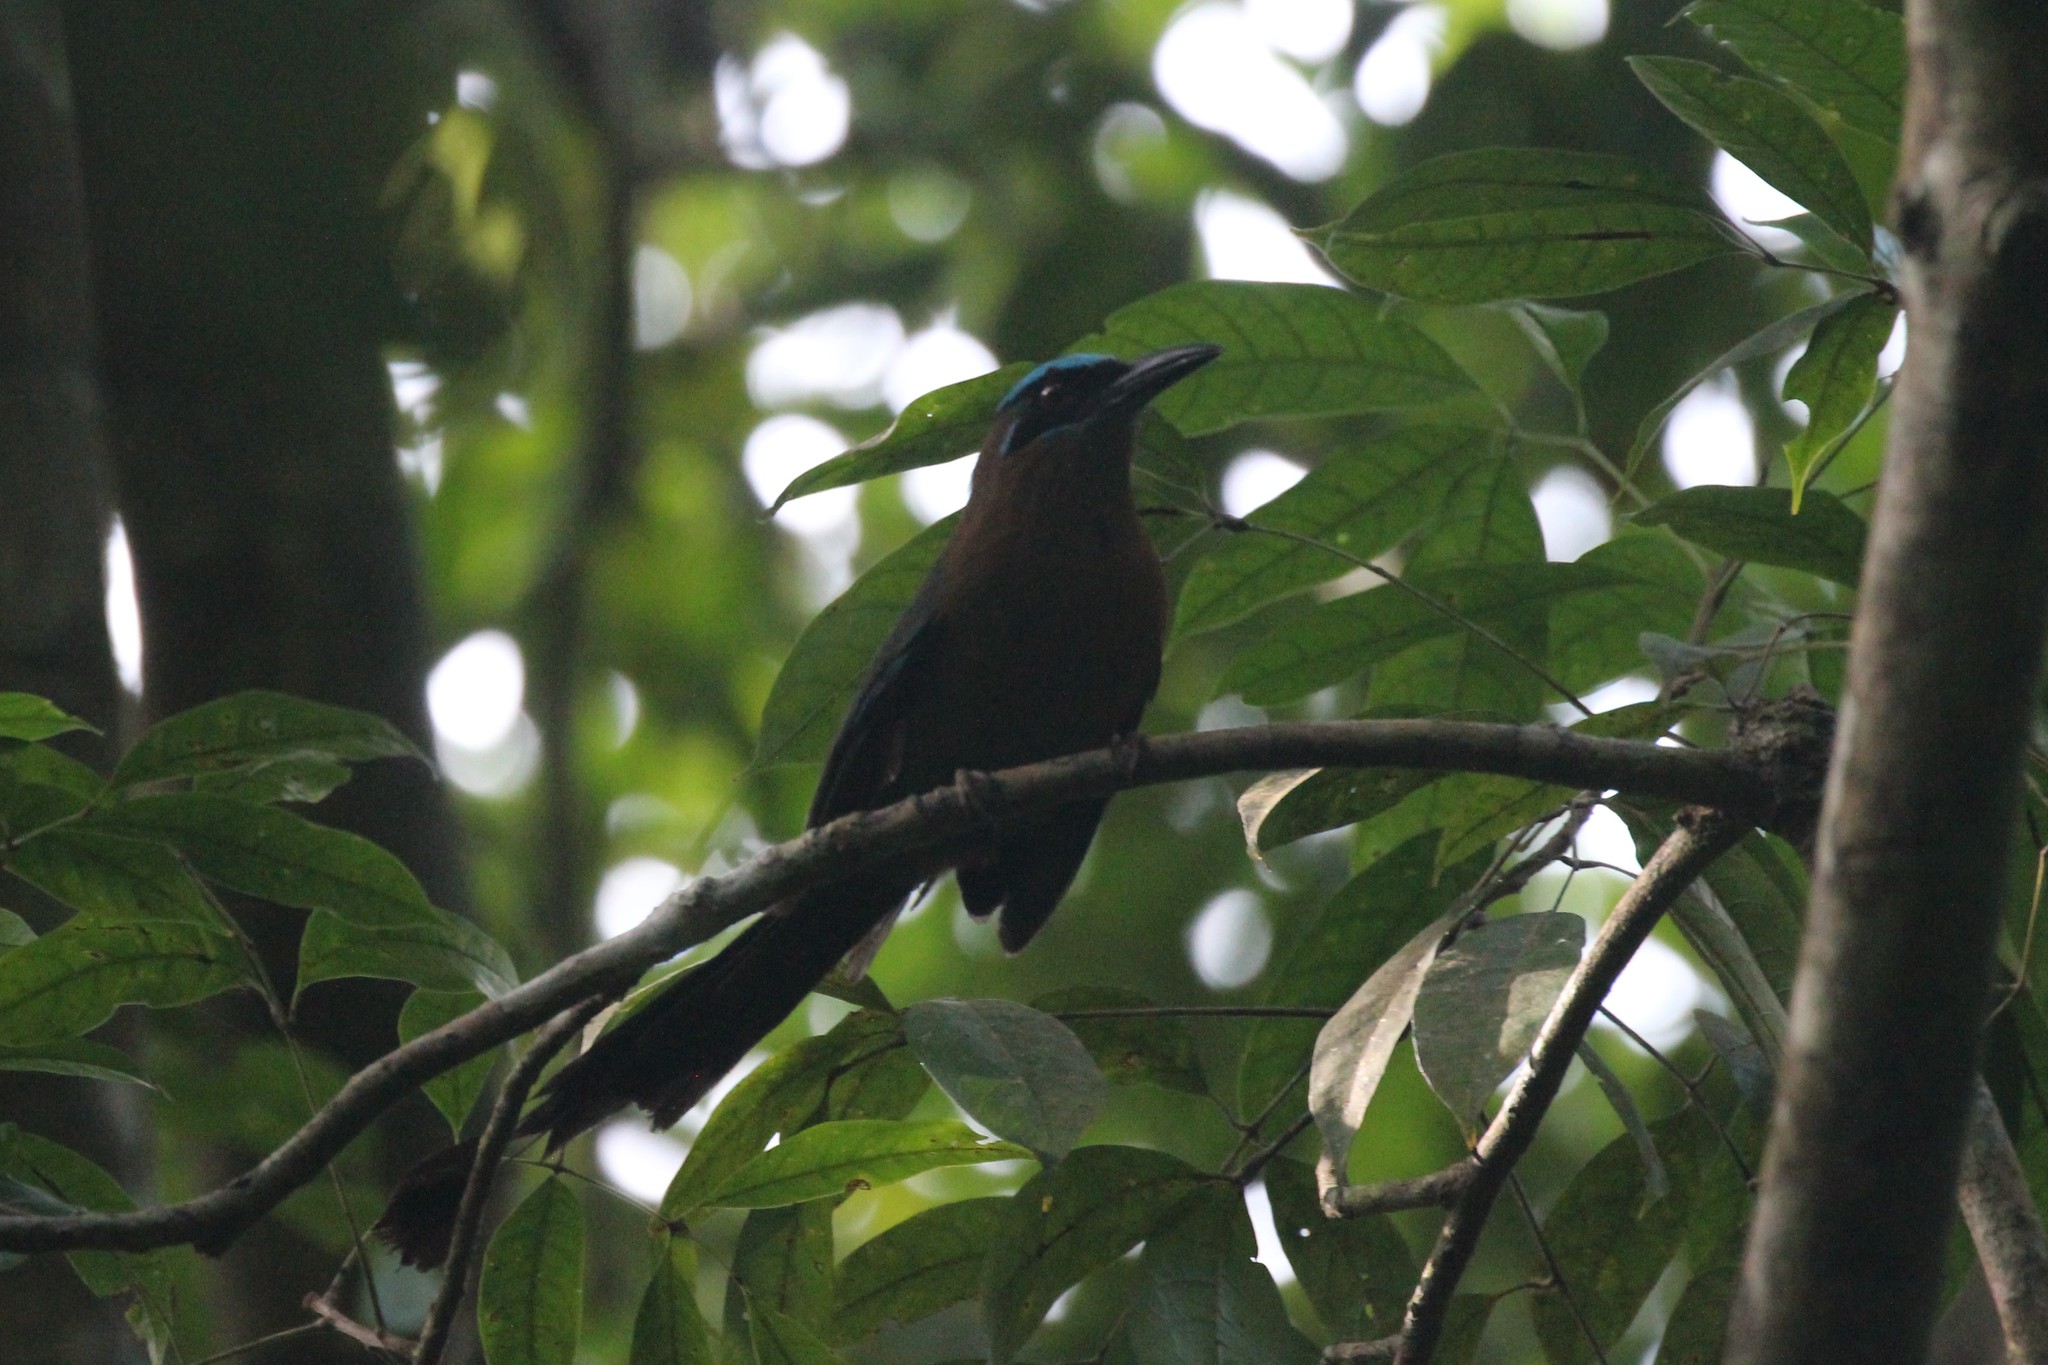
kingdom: Animalia
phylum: Chordata
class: Aves
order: Coraciiformes
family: Momotidae
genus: Momotus
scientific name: Momotus lessonii
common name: Lesson's motmot
